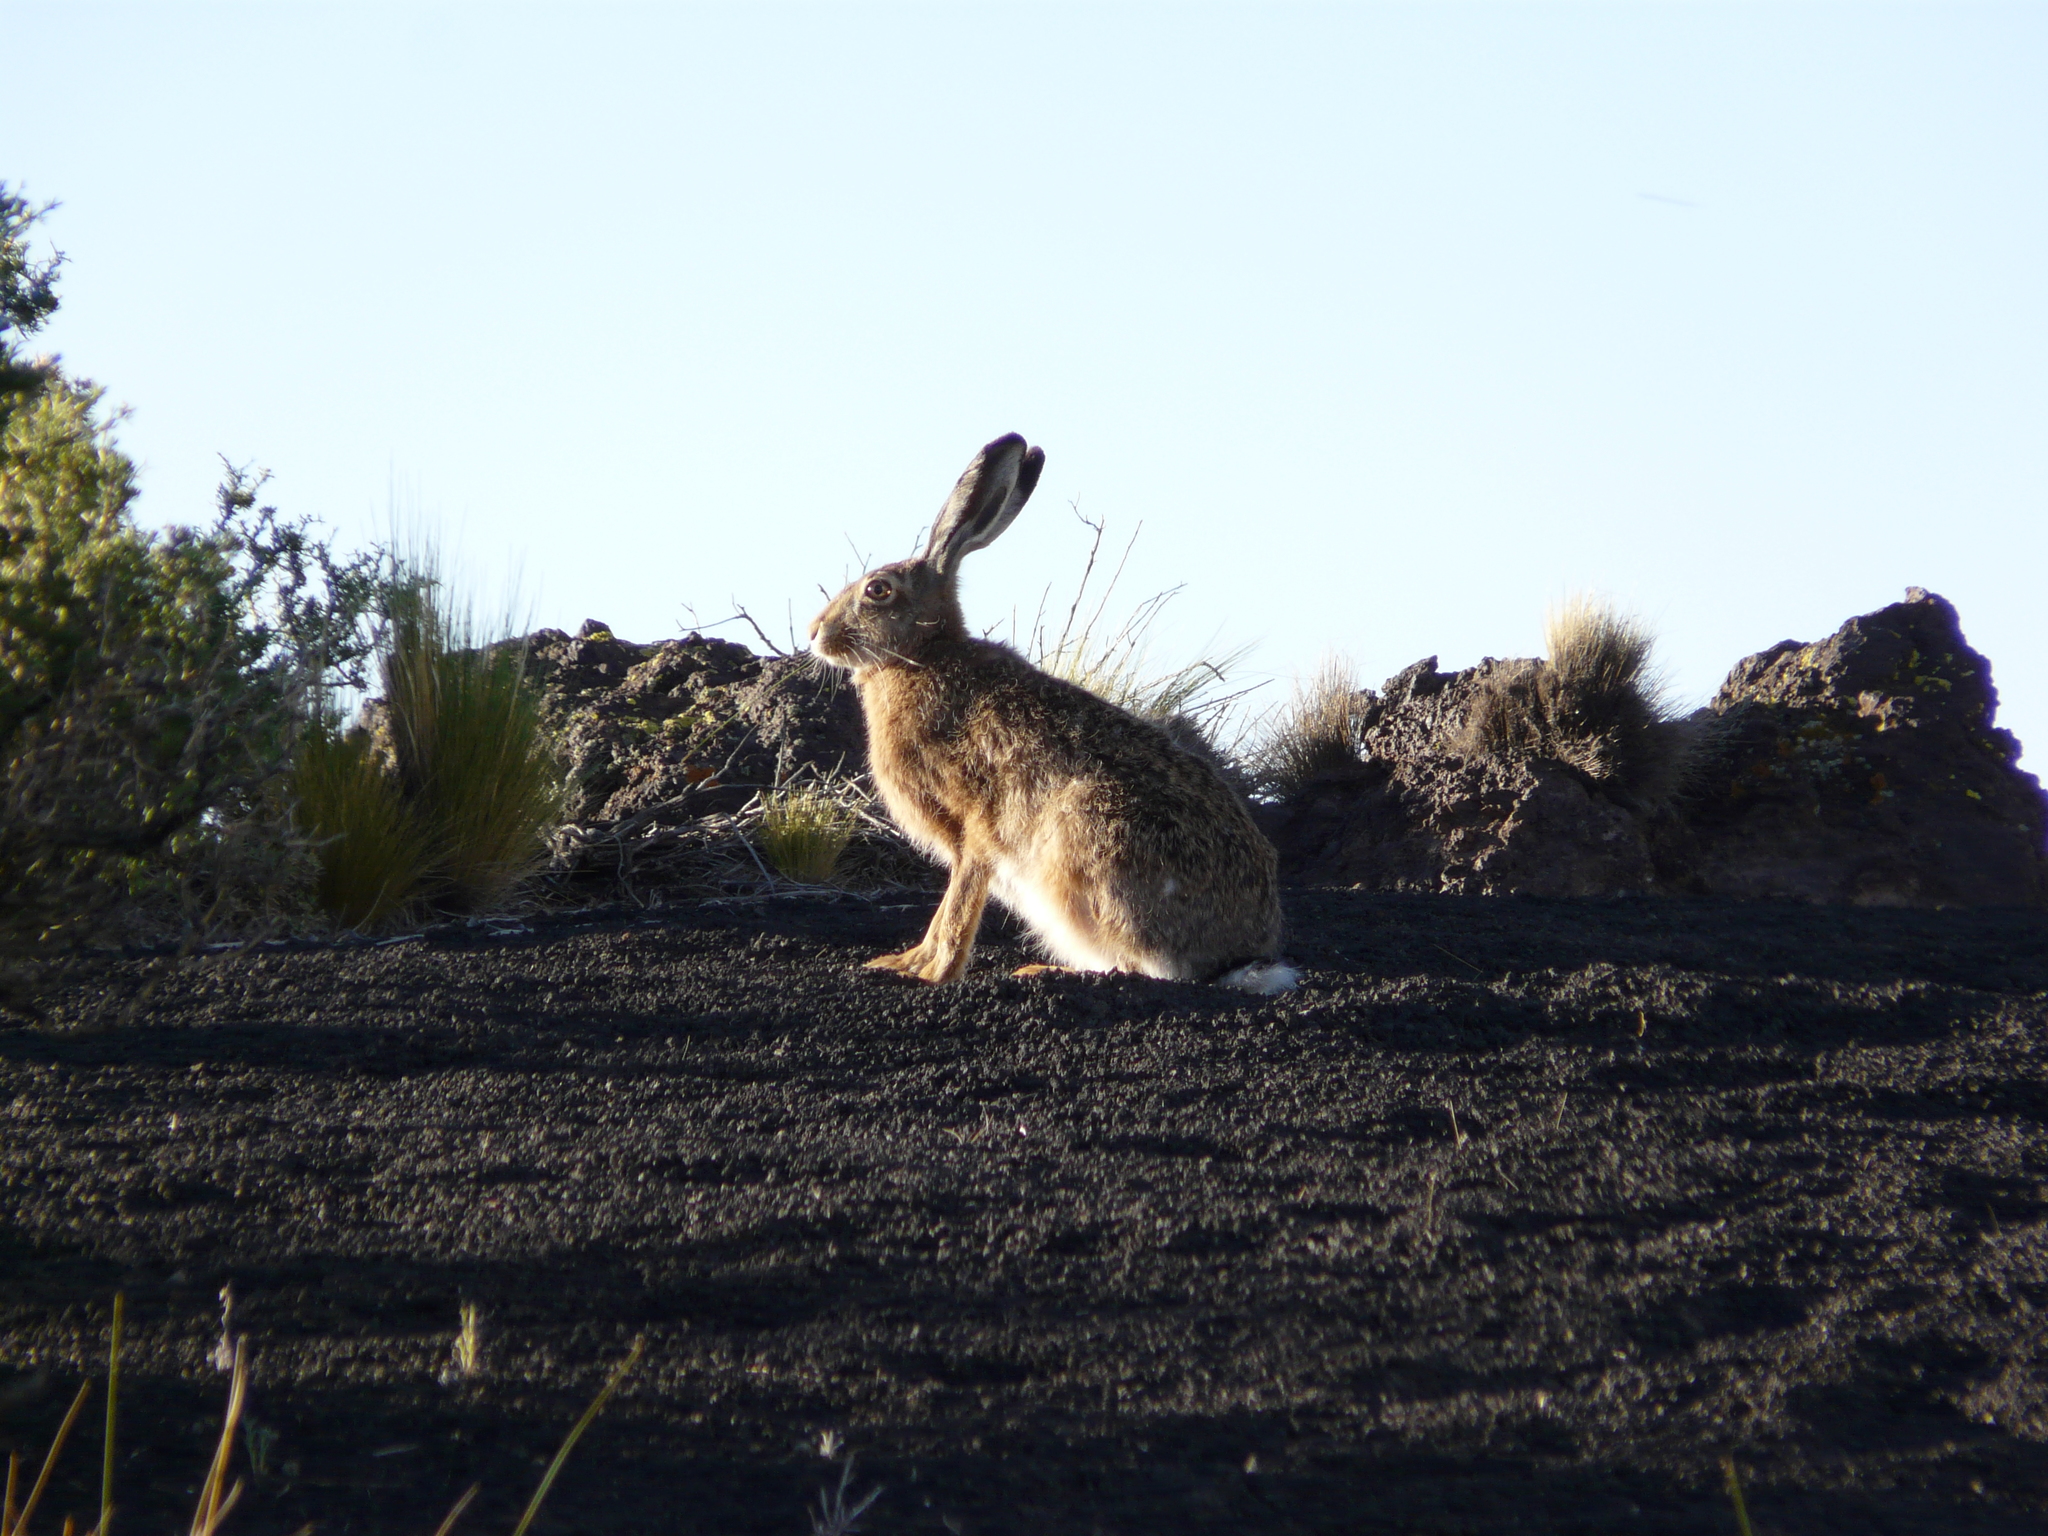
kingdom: Animalia
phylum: Chordata
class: Mammalia
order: Lagomorpha
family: Leporidae
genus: Lepus
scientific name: Lepus europaeus
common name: European hare
